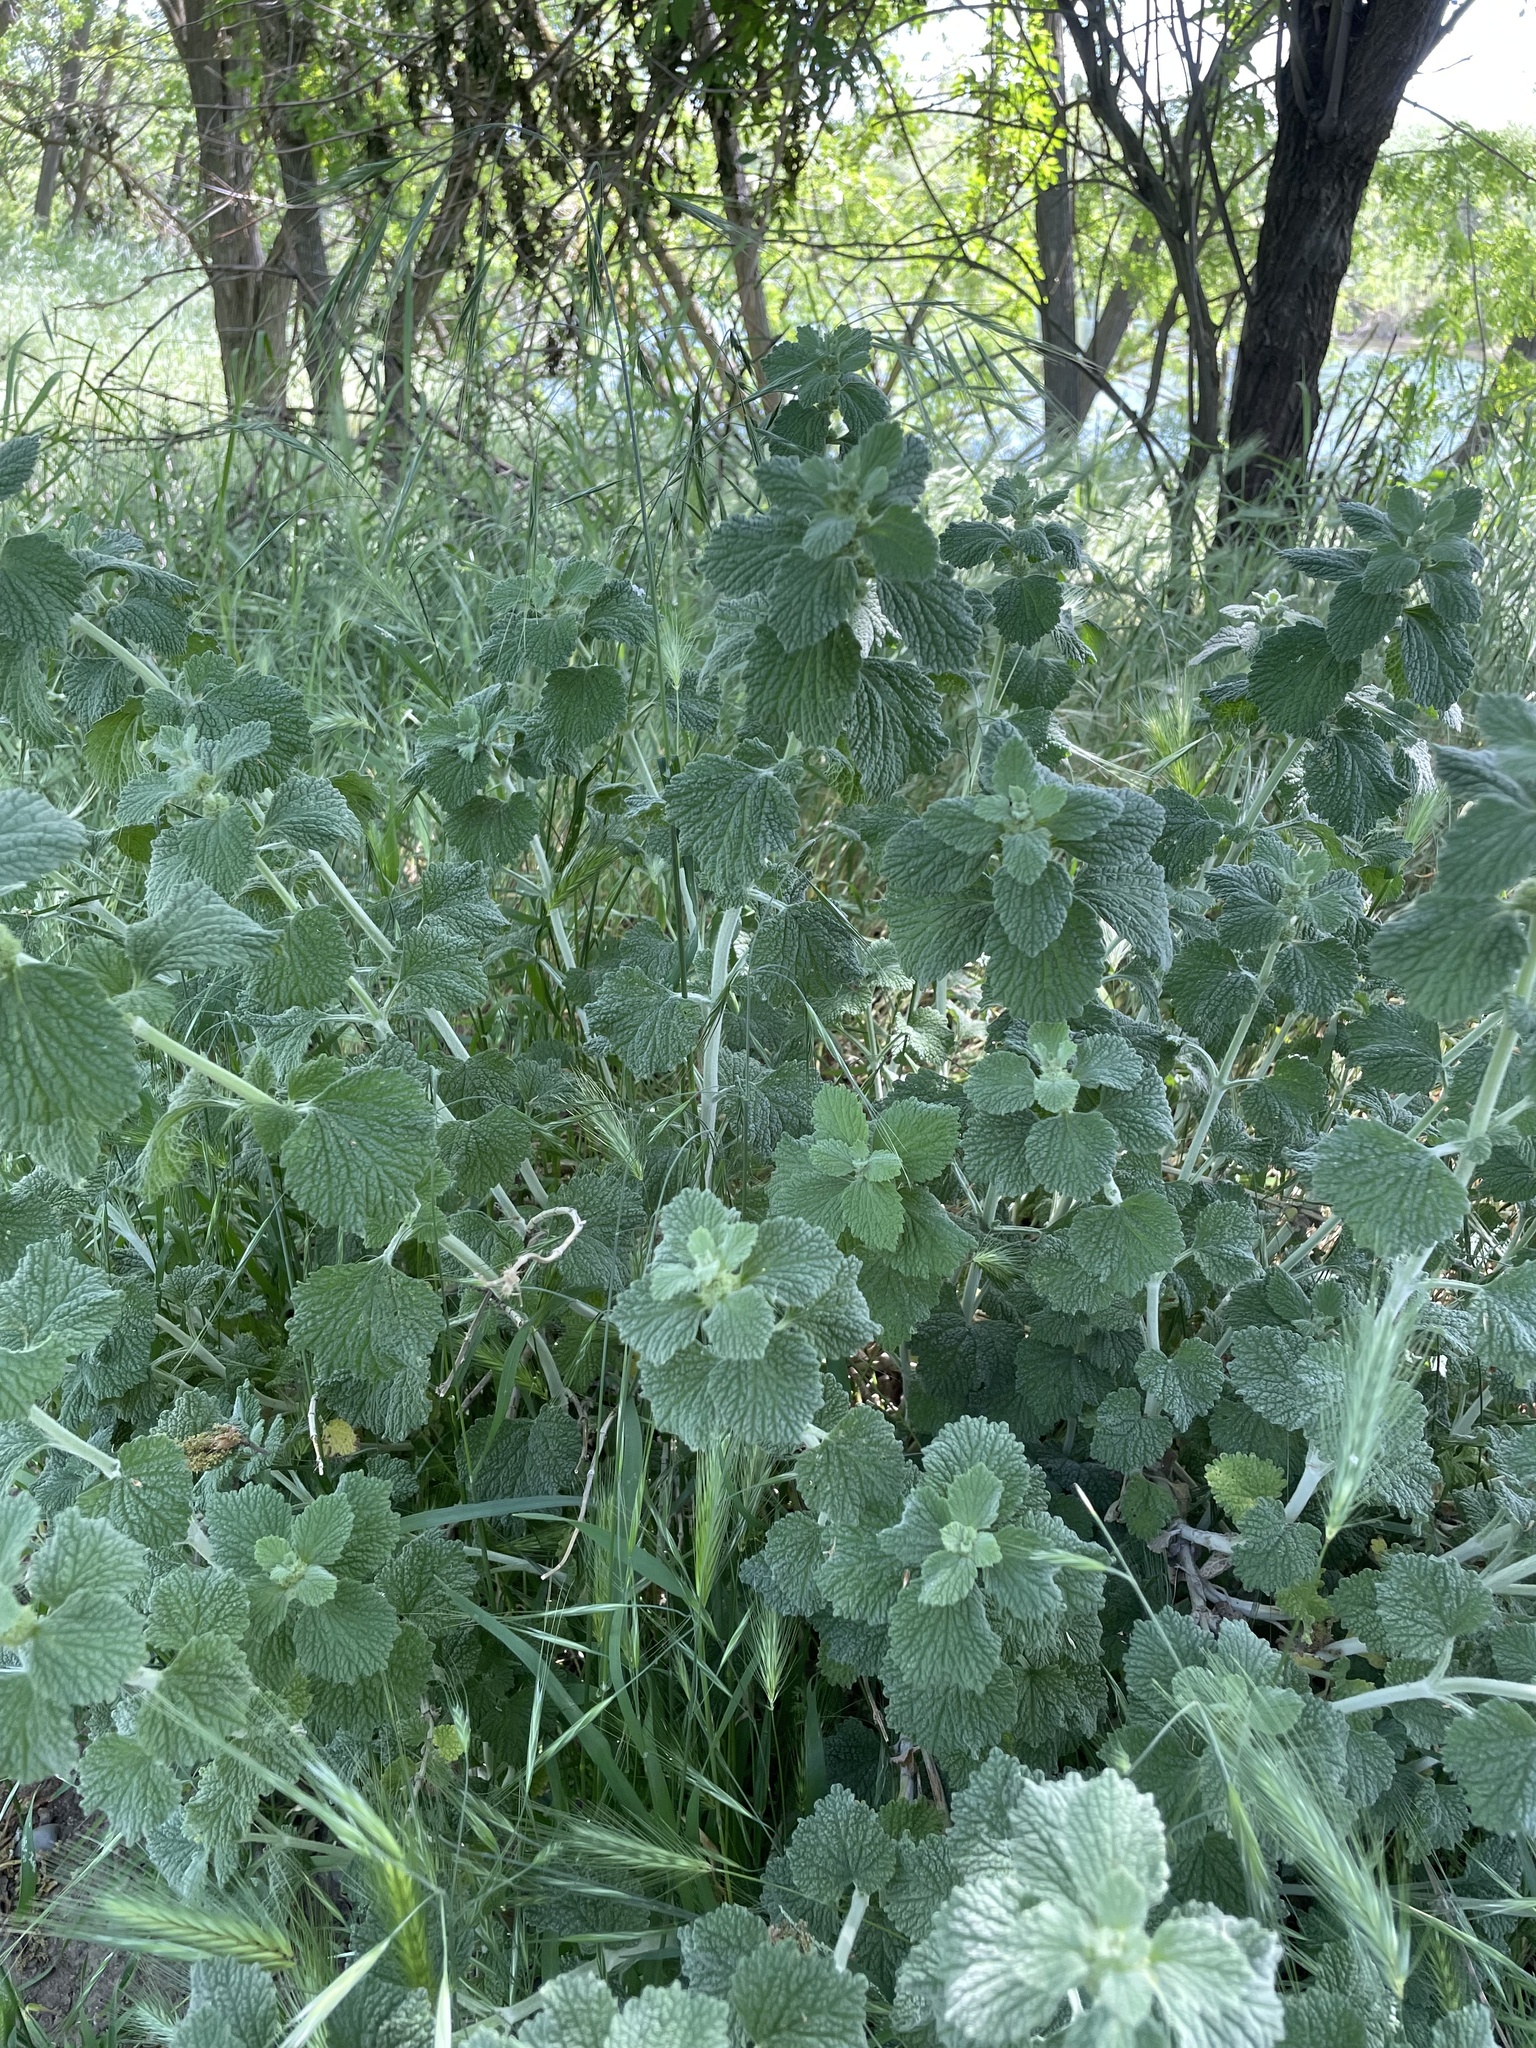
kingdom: Plantae
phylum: Tracheophyta
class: Magnoliopsida
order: Lamiales
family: Lamiaceae
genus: Marrubium
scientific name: Marrubium vulgare
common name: Horehound
